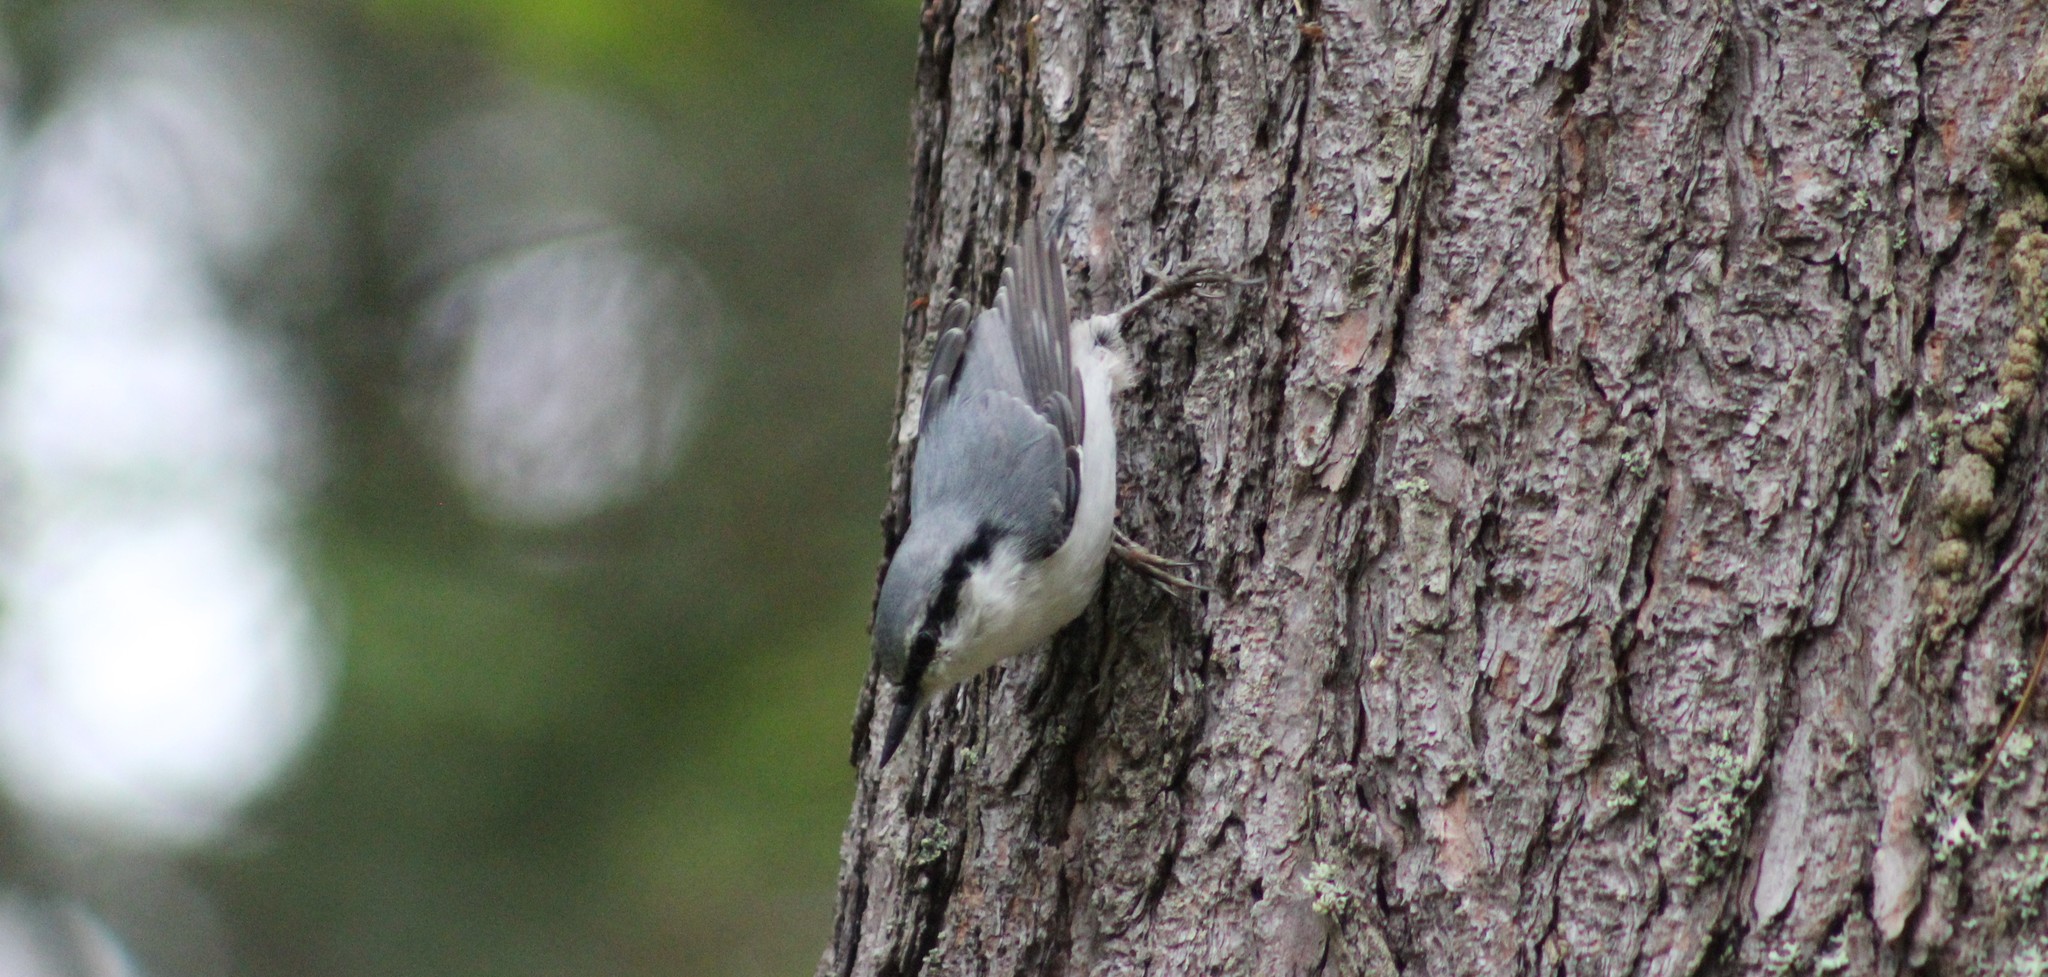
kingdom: Animalia
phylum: Chordata
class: Aves
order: Passeriformes
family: Sittidae
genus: Sitta
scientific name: Sitta europaea
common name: Eurasian nuthatch
